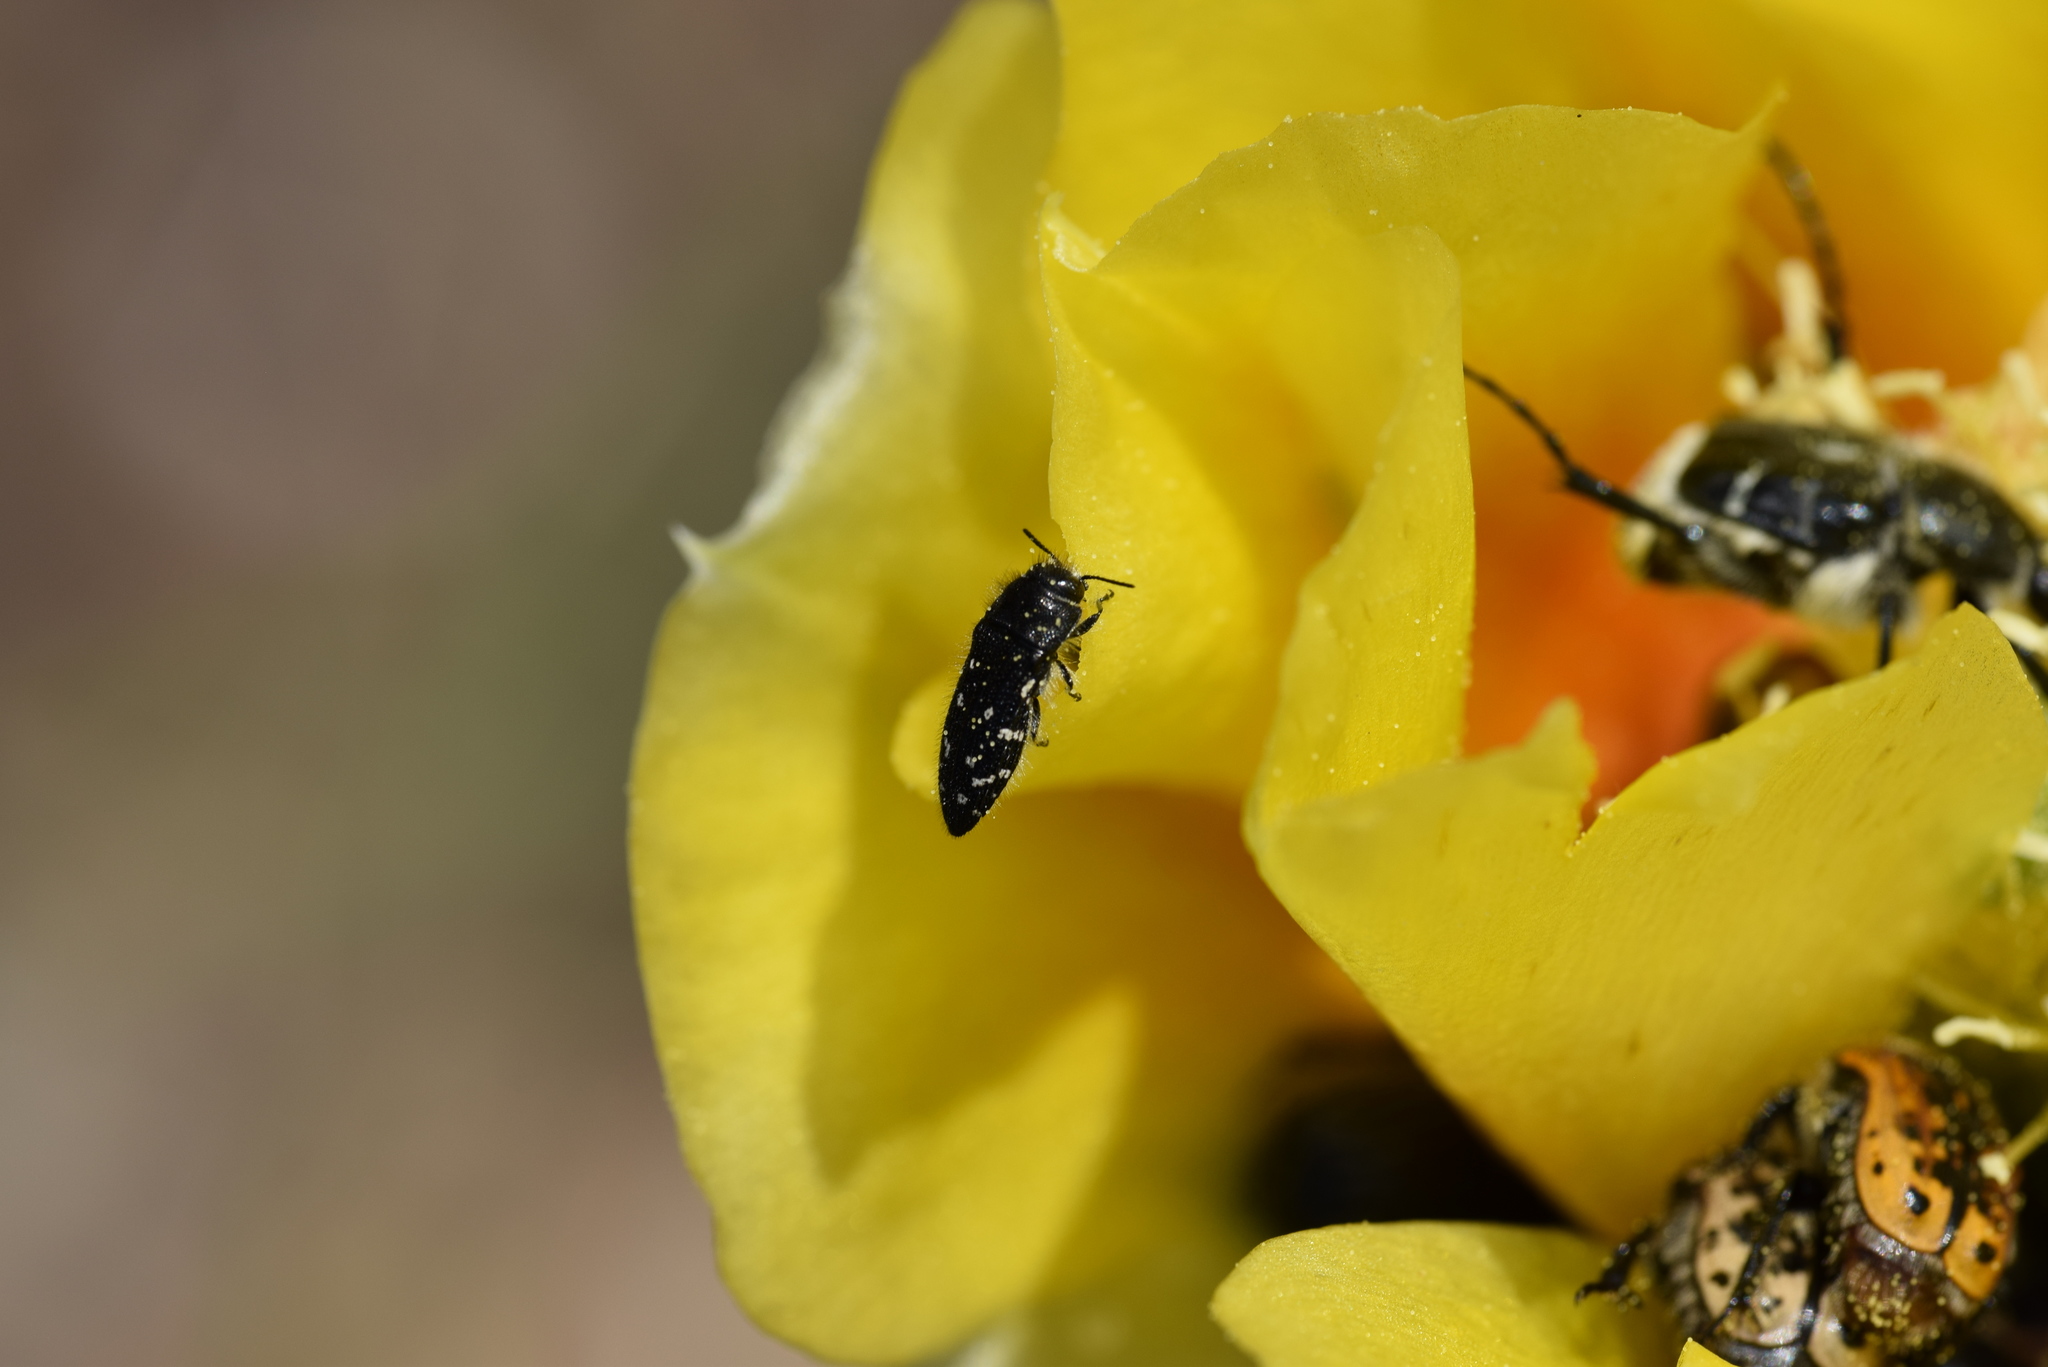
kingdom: Animalia
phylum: Arthropoda
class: Insecta
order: Coleoptera
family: Buprestidae
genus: Acmaeodera
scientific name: Acmaeodera ornatoides
